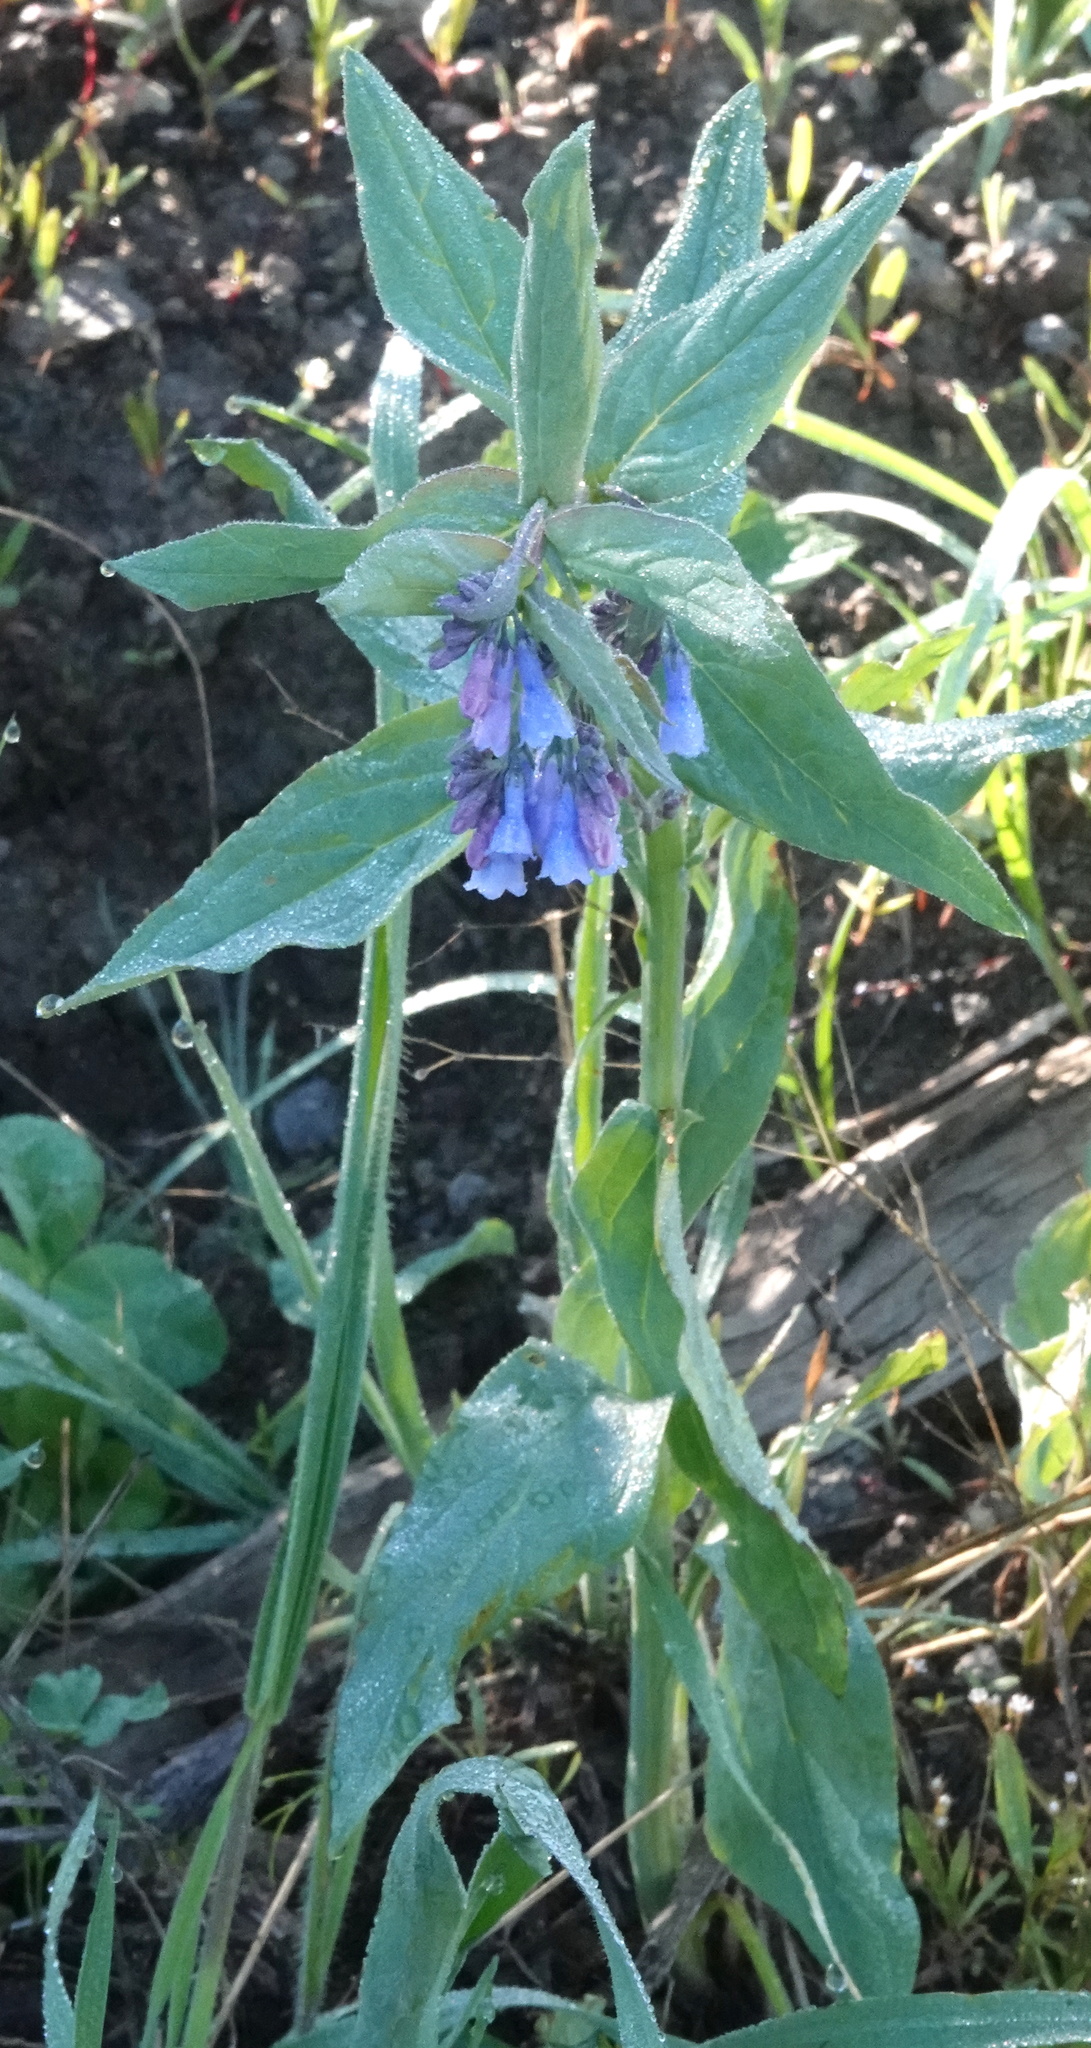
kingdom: Plantae
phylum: Tracheophyta
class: Magnoliopsida
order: Boraginales
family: Boraginaceae
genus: Mertensia
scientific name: Mertensia ciliata
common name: Tall chiming-bells
